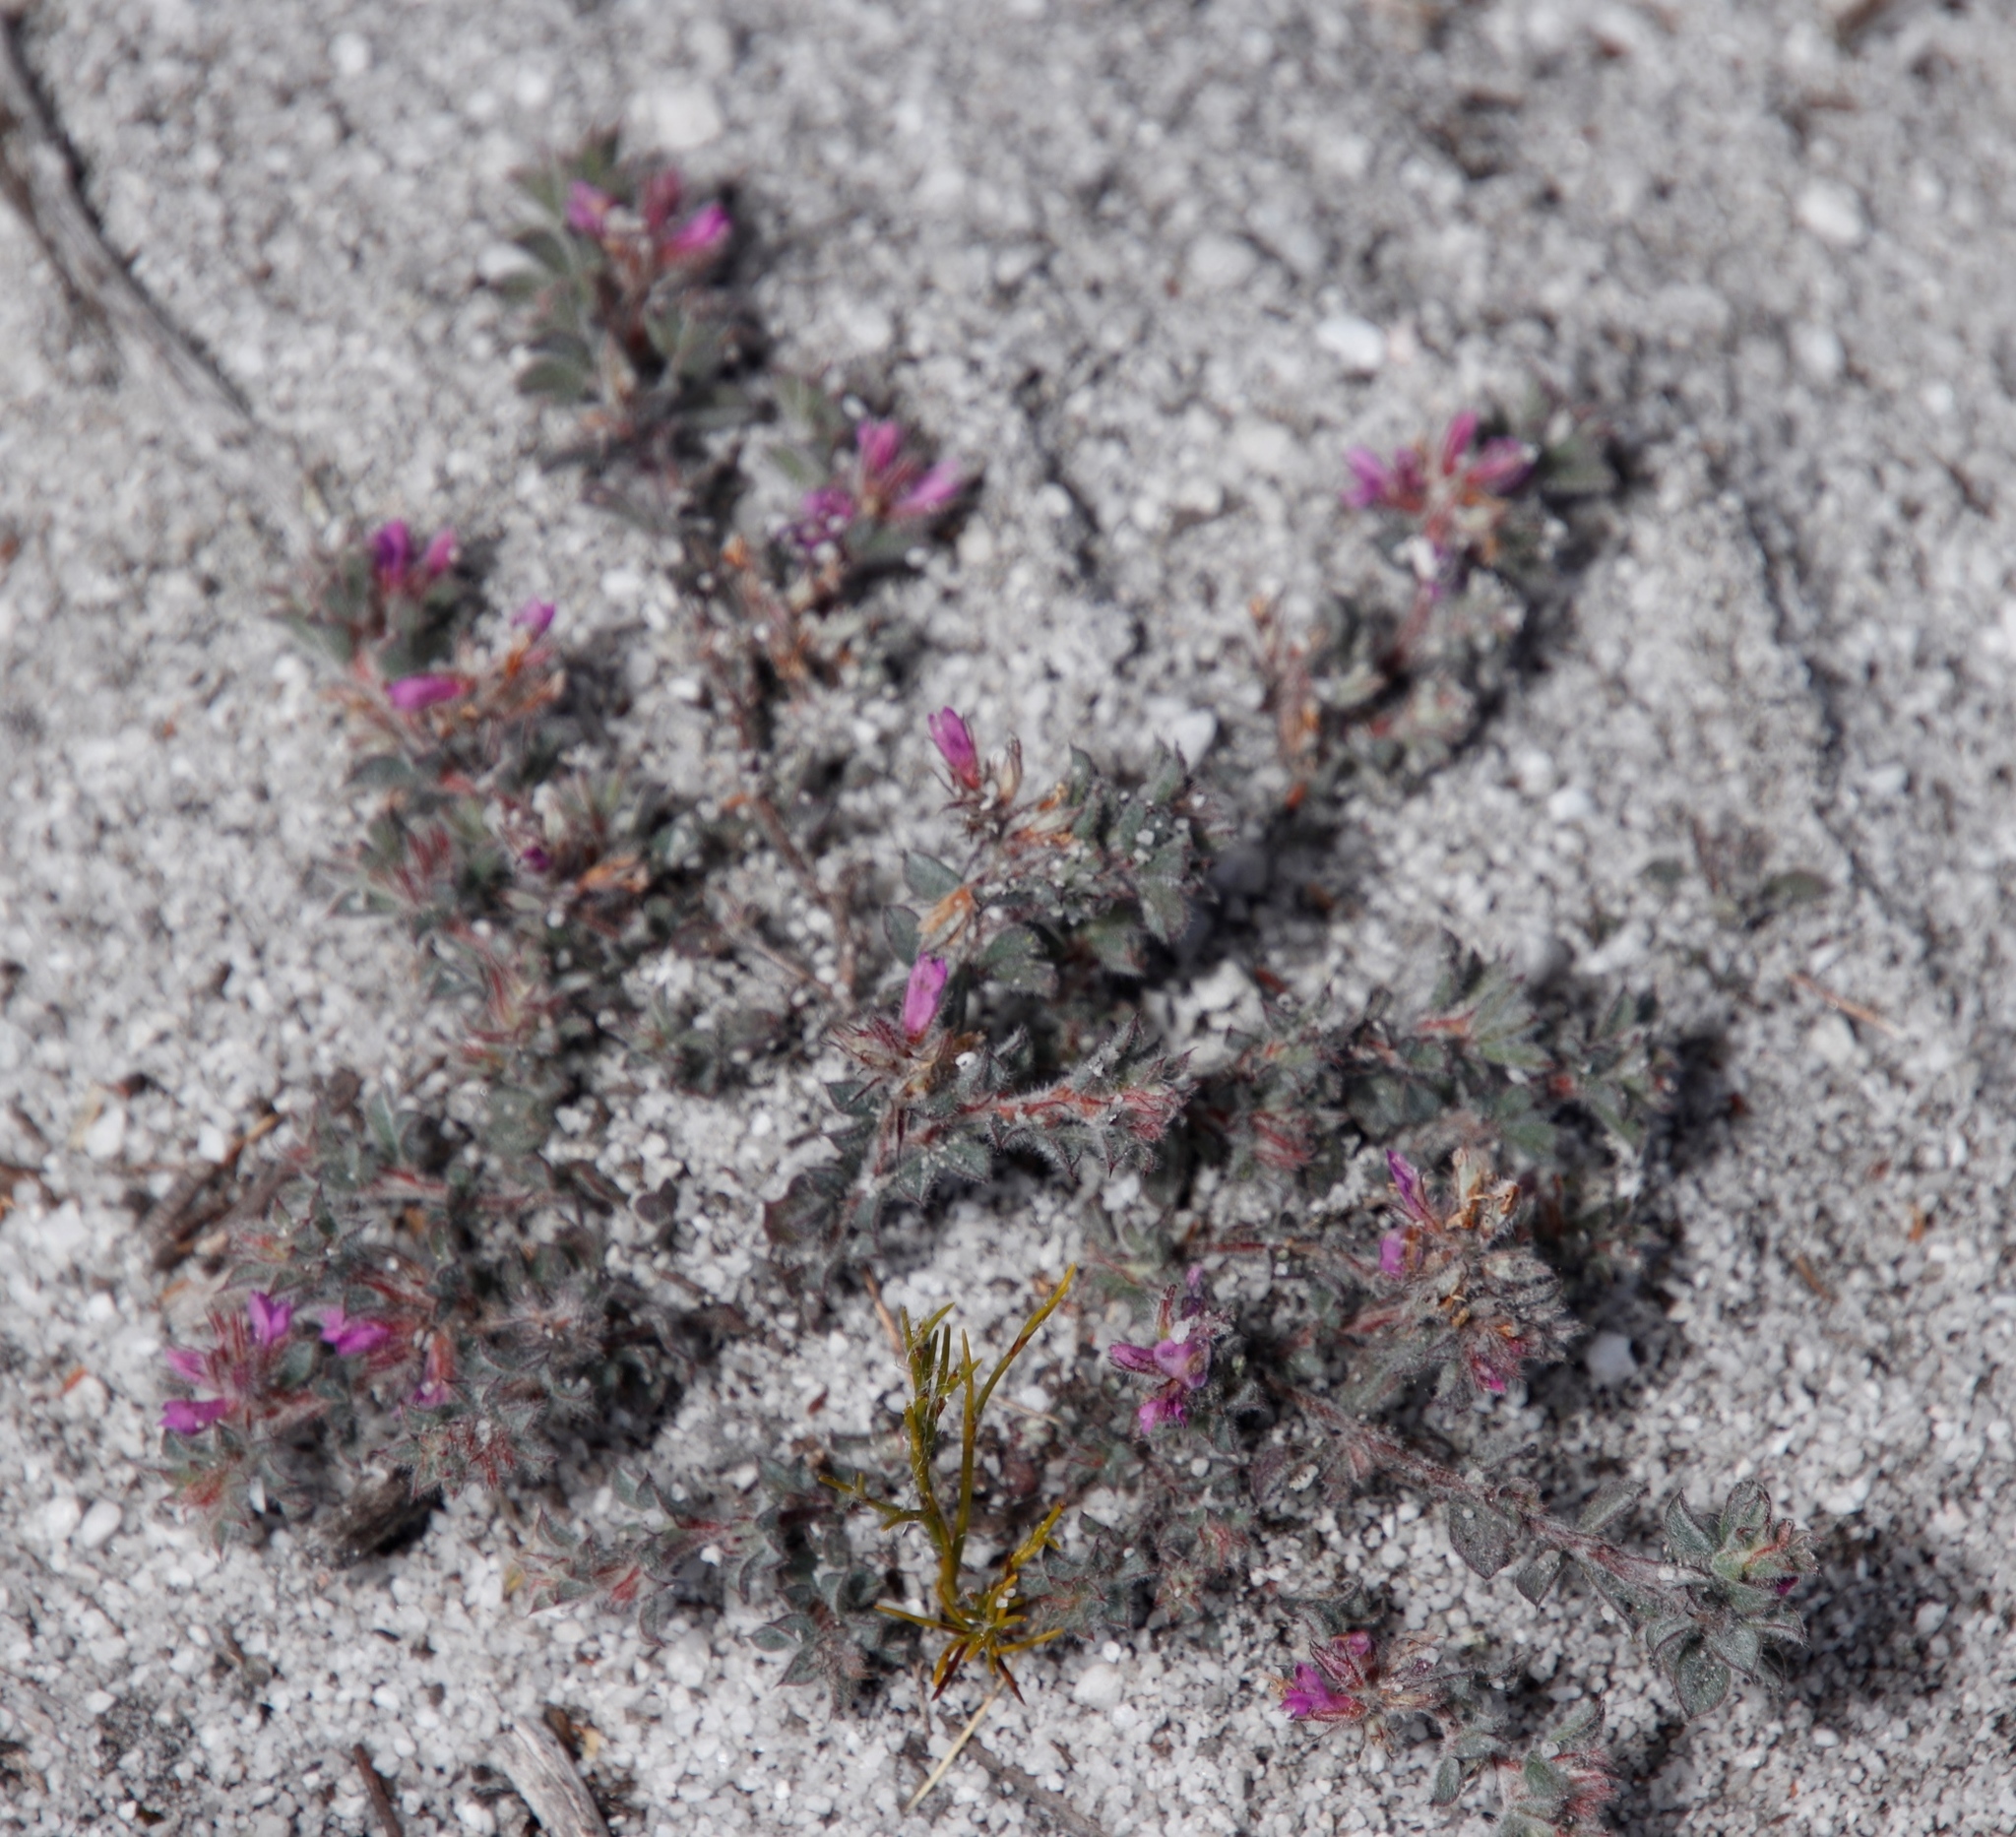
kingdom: Plantae
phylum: Tracheophyta
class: Magnoliopsida
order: Fabales
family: Fabaceae
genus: Indigofera
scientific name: Indigofera glomerata
